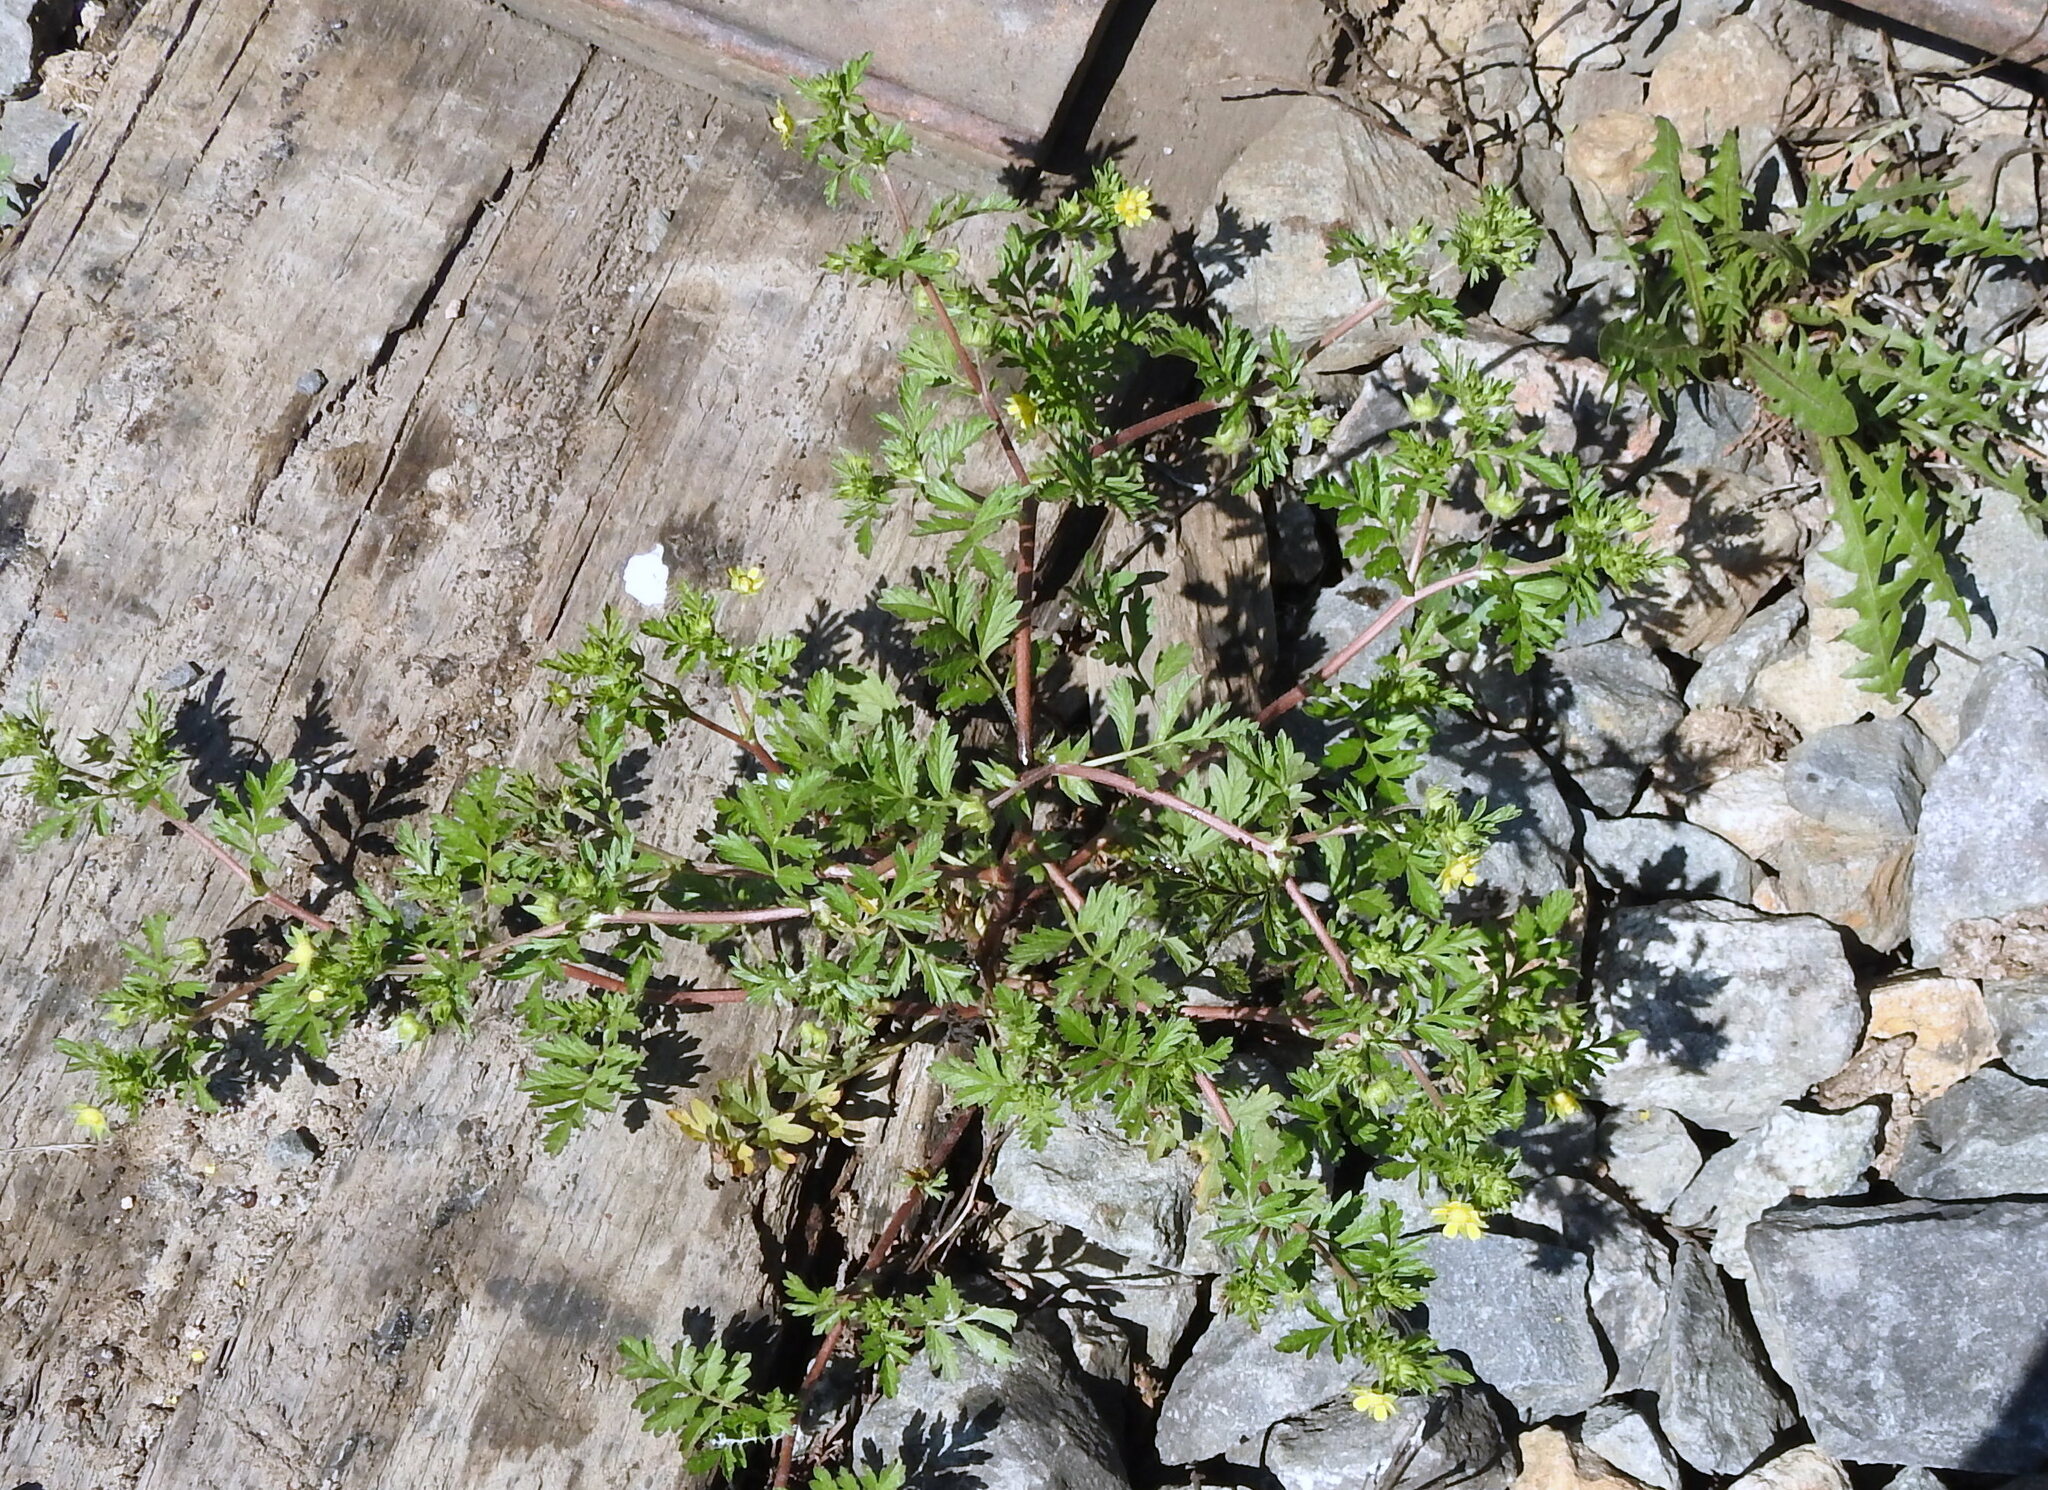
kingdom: Plantae
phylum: Tracheophyta
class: Magnoliopsida
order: Rosales
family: Rosaceae
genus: Potentilla
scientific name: Potentilla supina
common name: Prostrate cinquefoil
